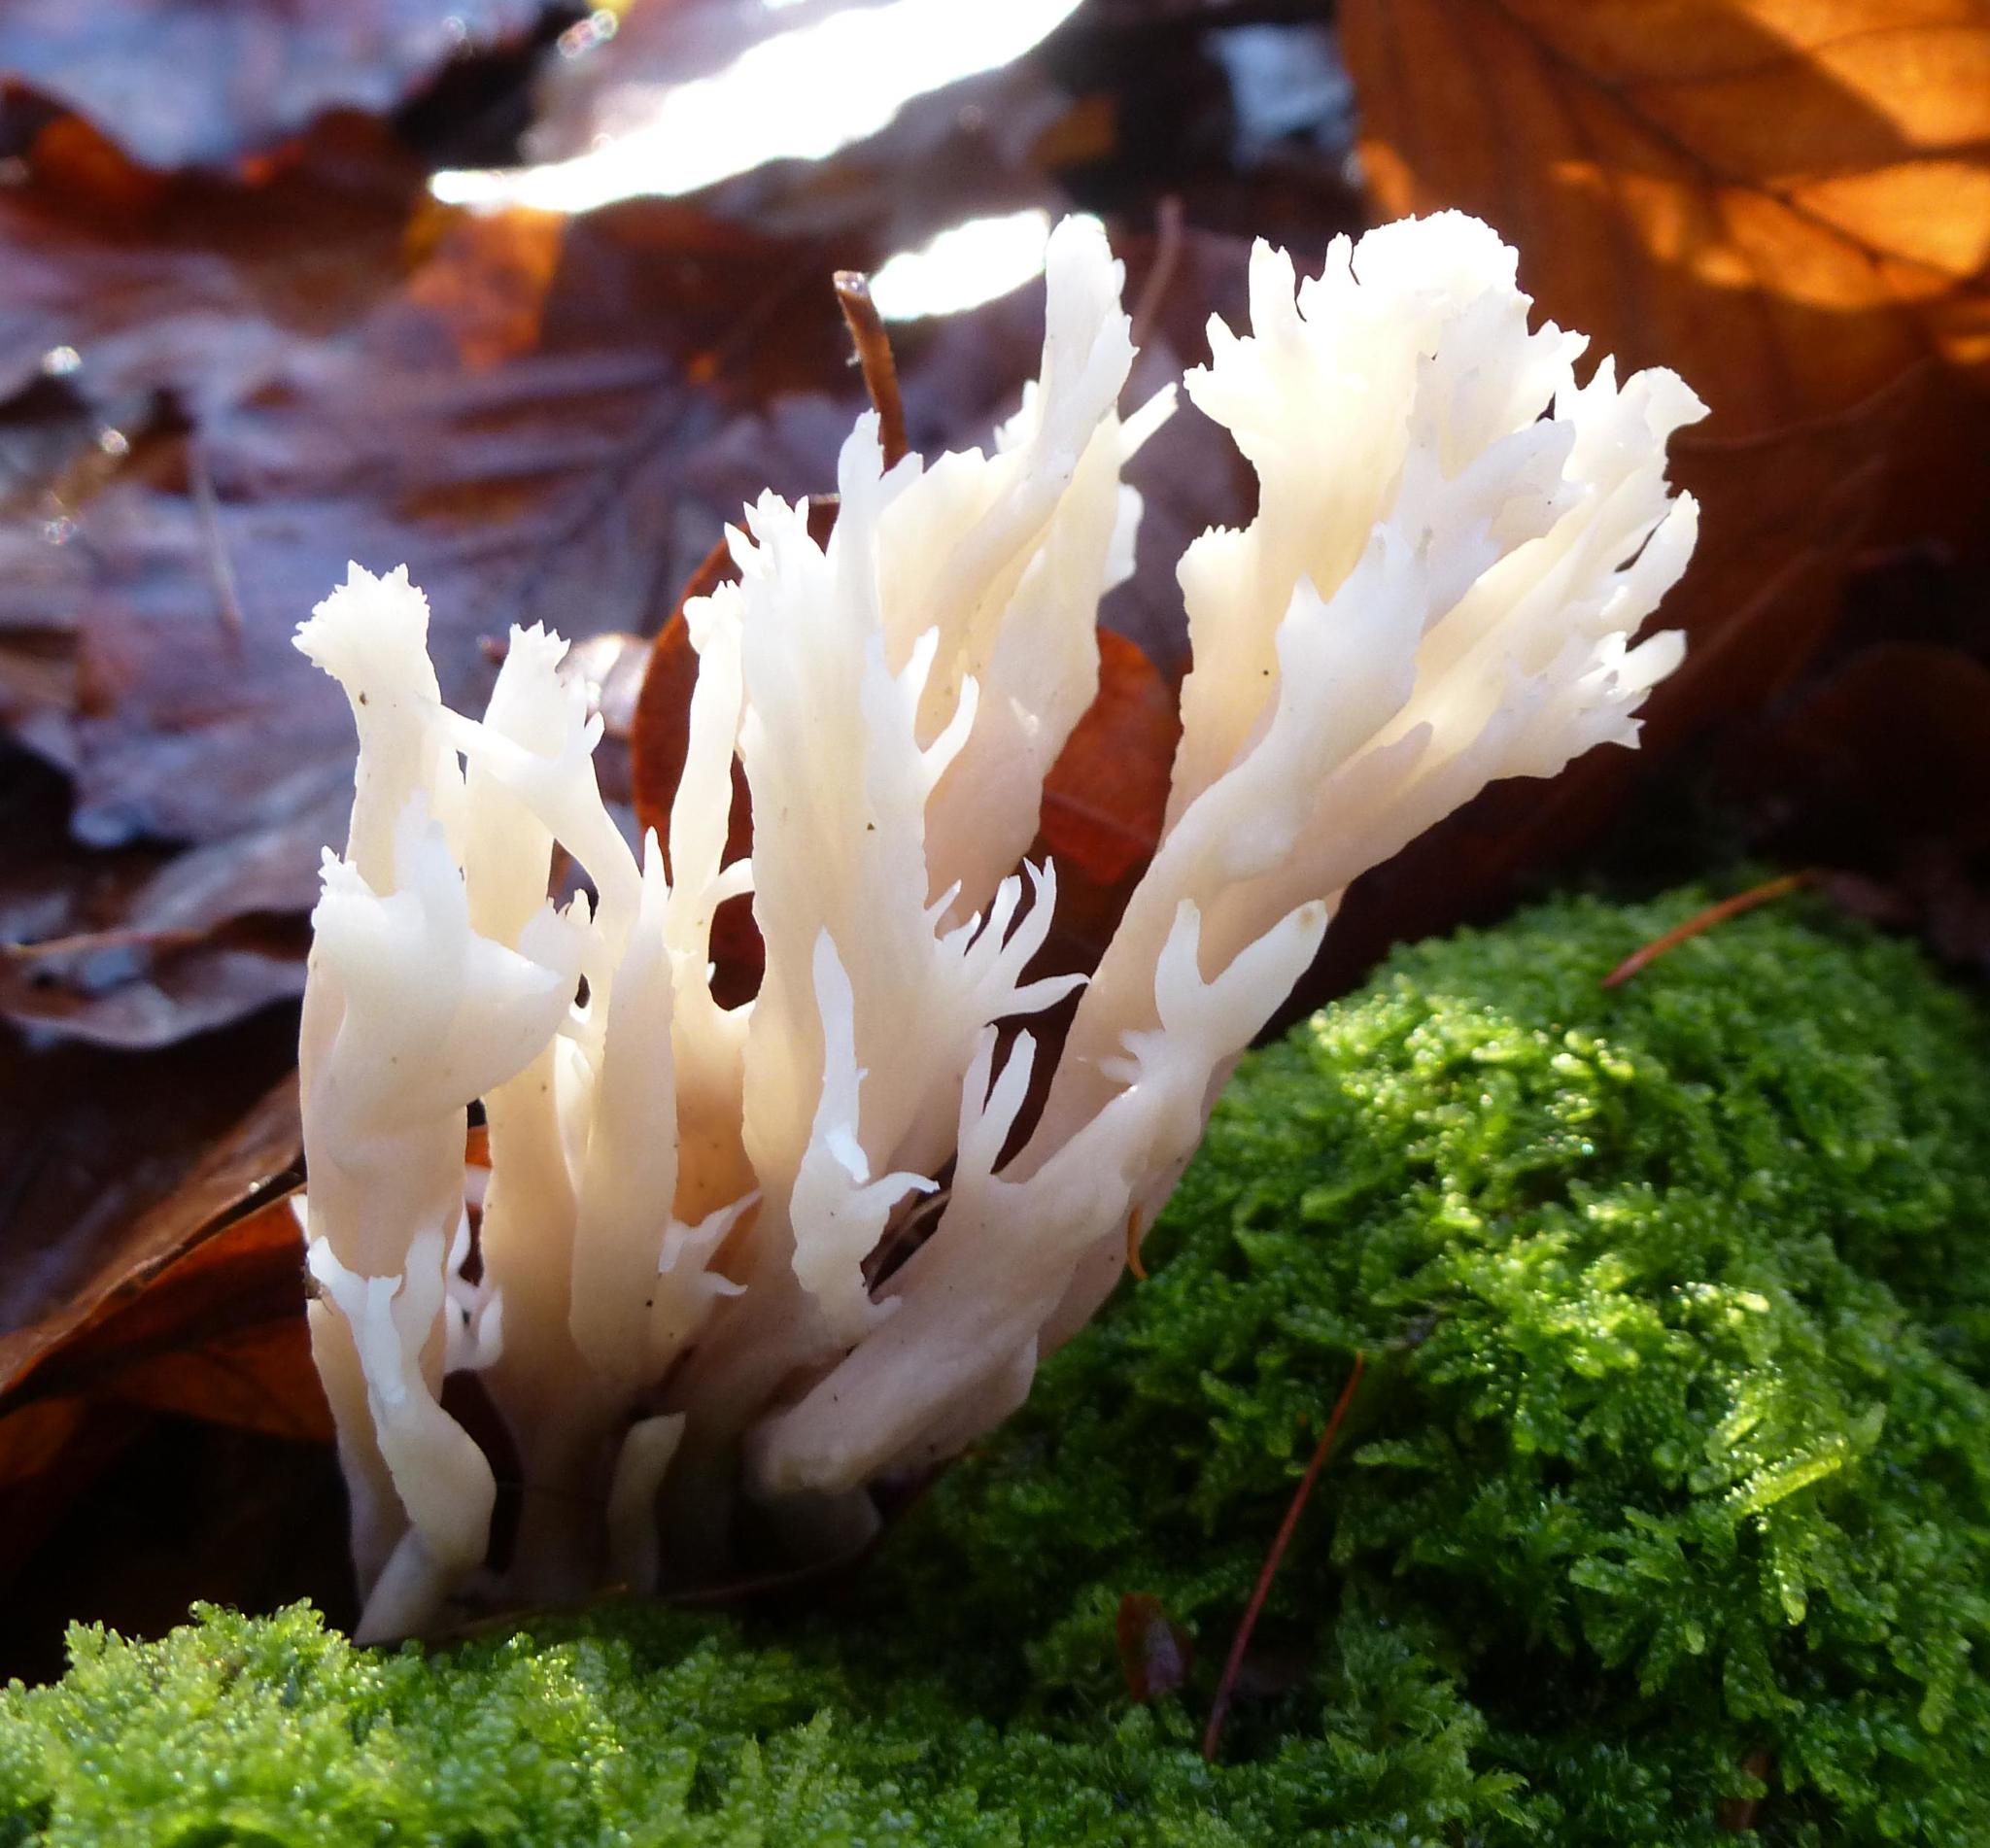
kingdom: Fungi
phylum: Basidiomycota
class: Agaricomycetes
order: Cantharellales
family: Hydnaceae
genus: Clavulina
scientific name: Clavulina coralloides
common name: Crested coral
